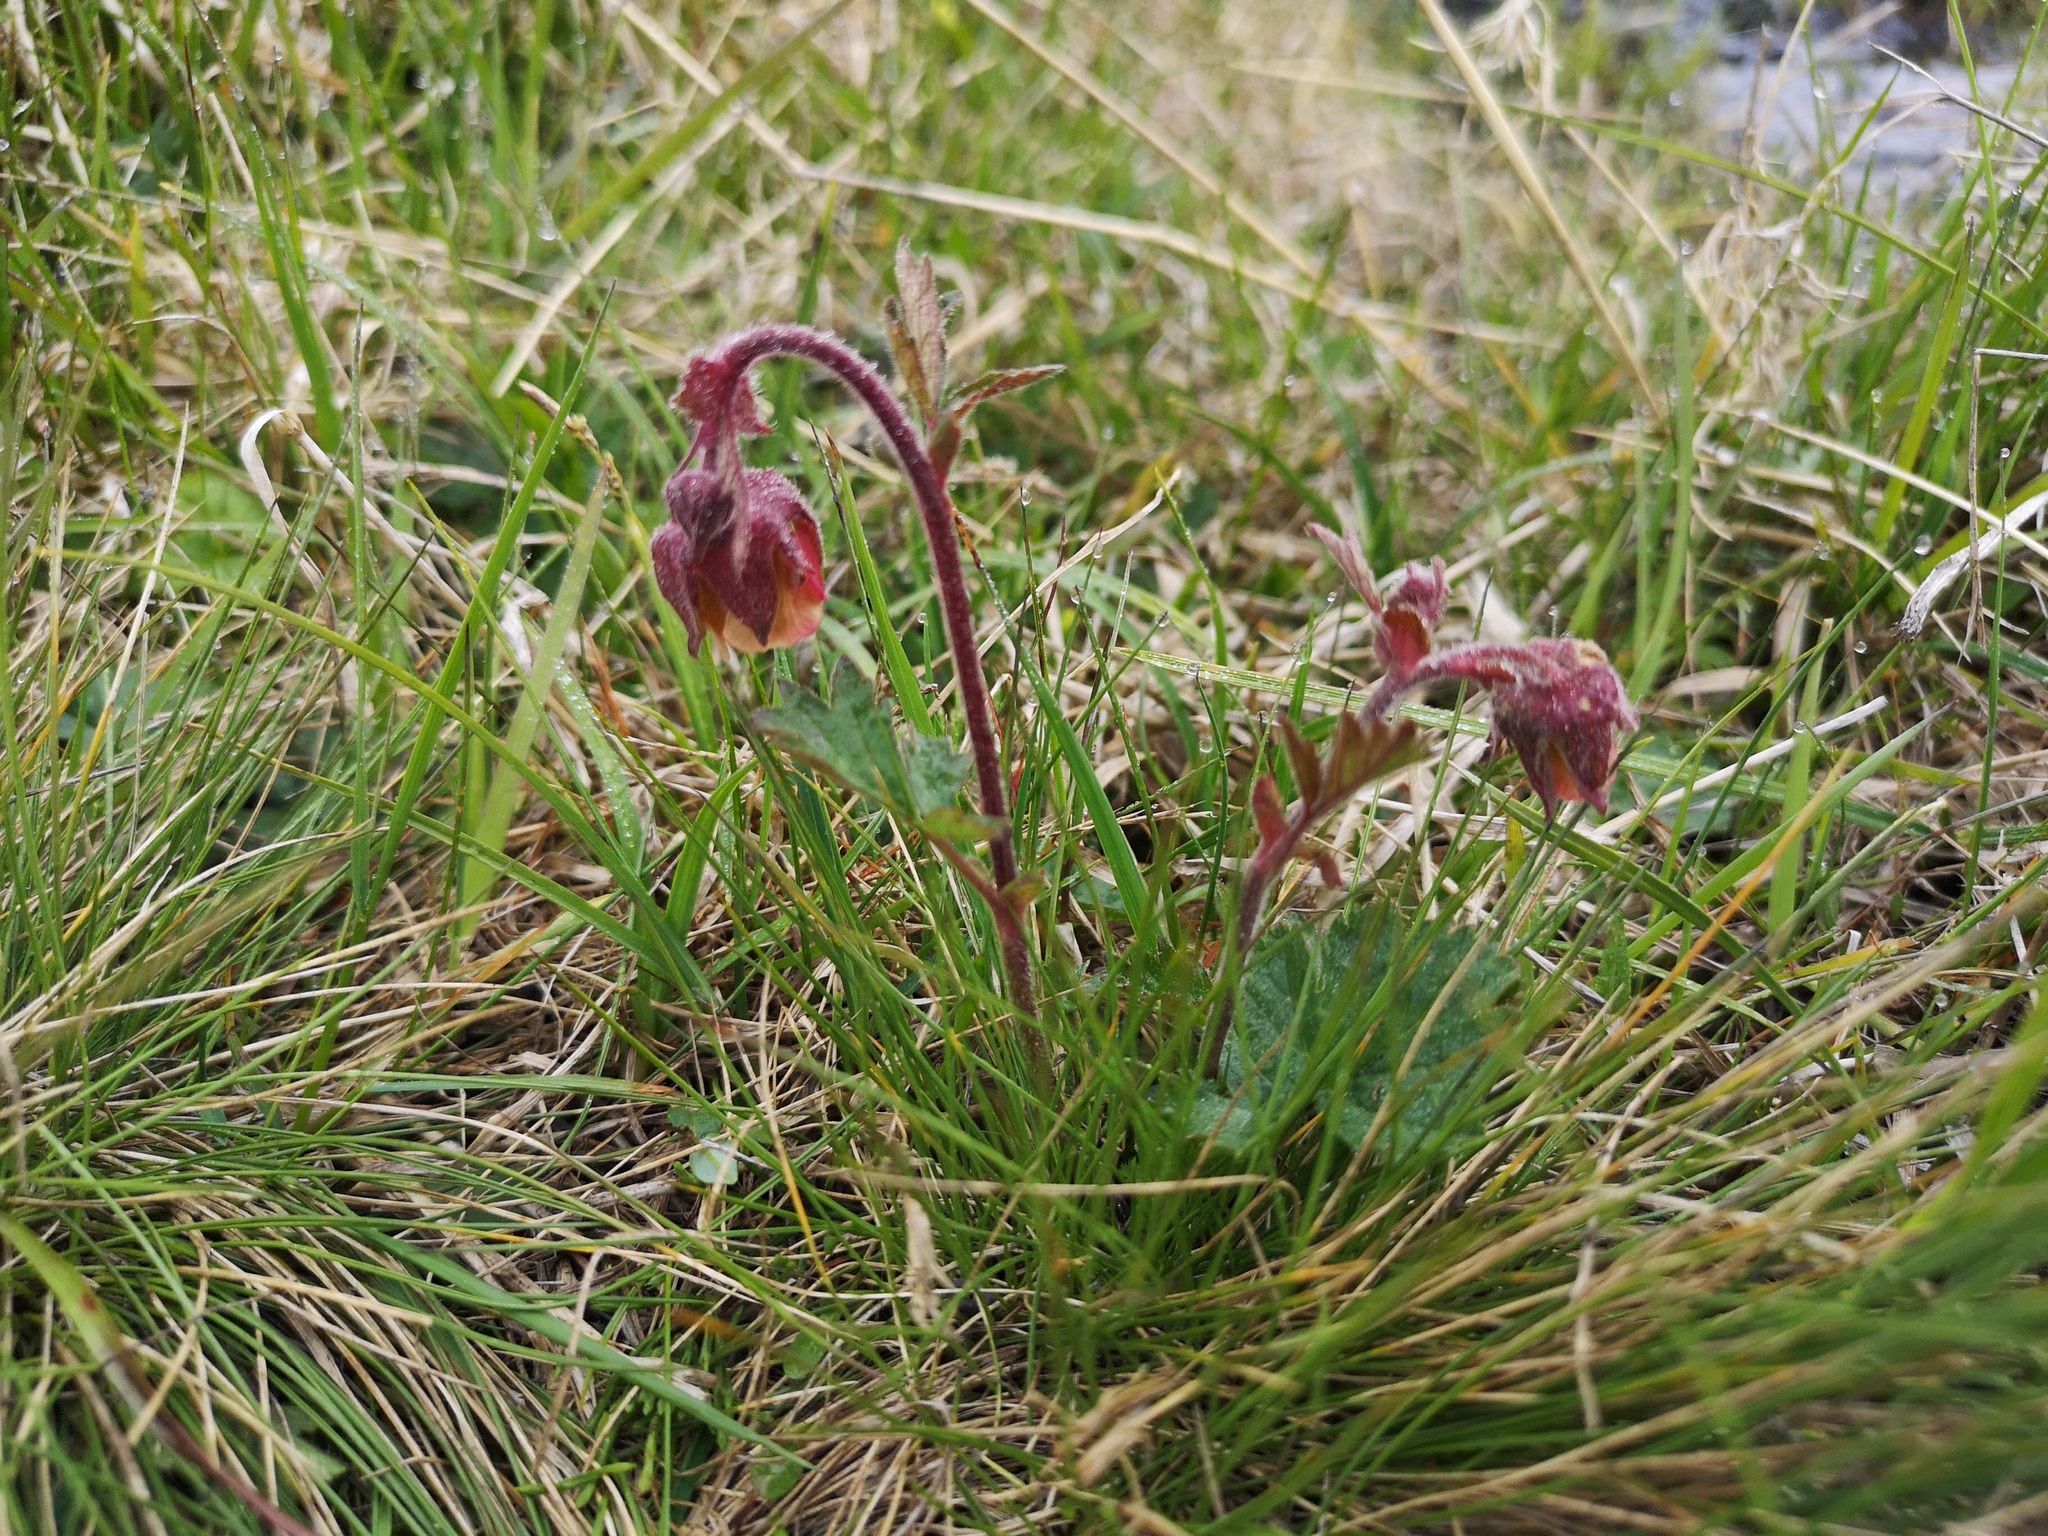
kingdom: Plantae
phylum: Tracheophyta
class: Magnoliopsida
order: Rosales
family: Rosaceae
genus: Geum
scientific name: Geum rivale
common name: Water avens
